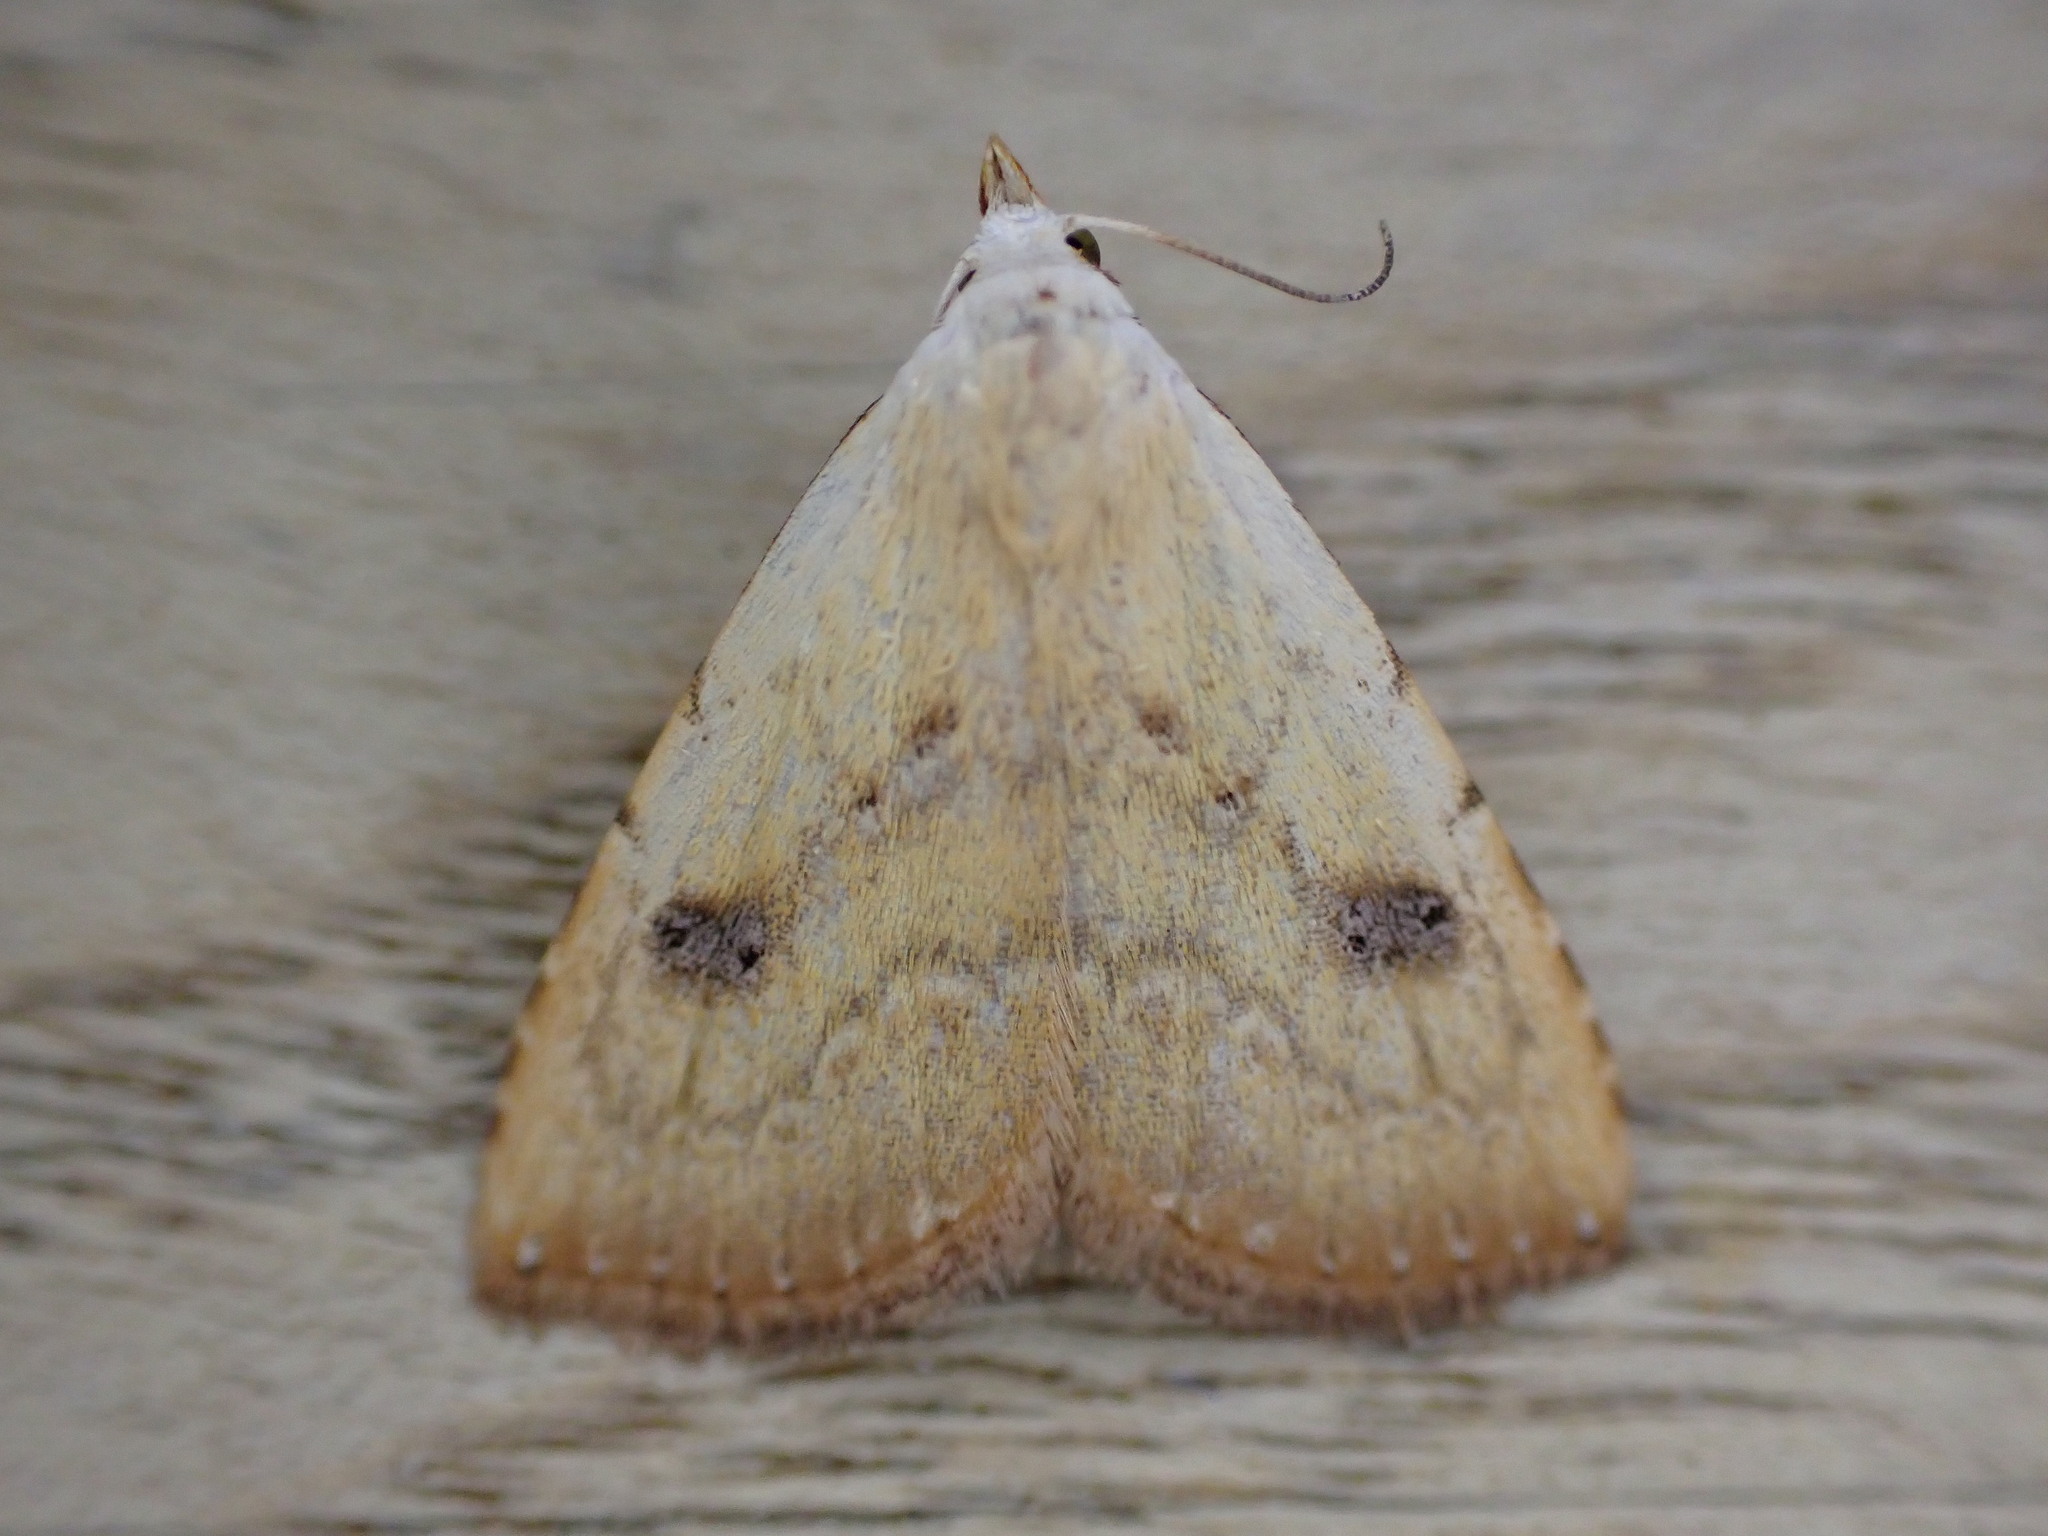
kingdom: Animalia
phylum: Arthropoda
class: Insecta
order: Lepidoptera
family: Erebidae
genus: Rivula
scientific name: Rivula sericealis
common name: Straw dot
